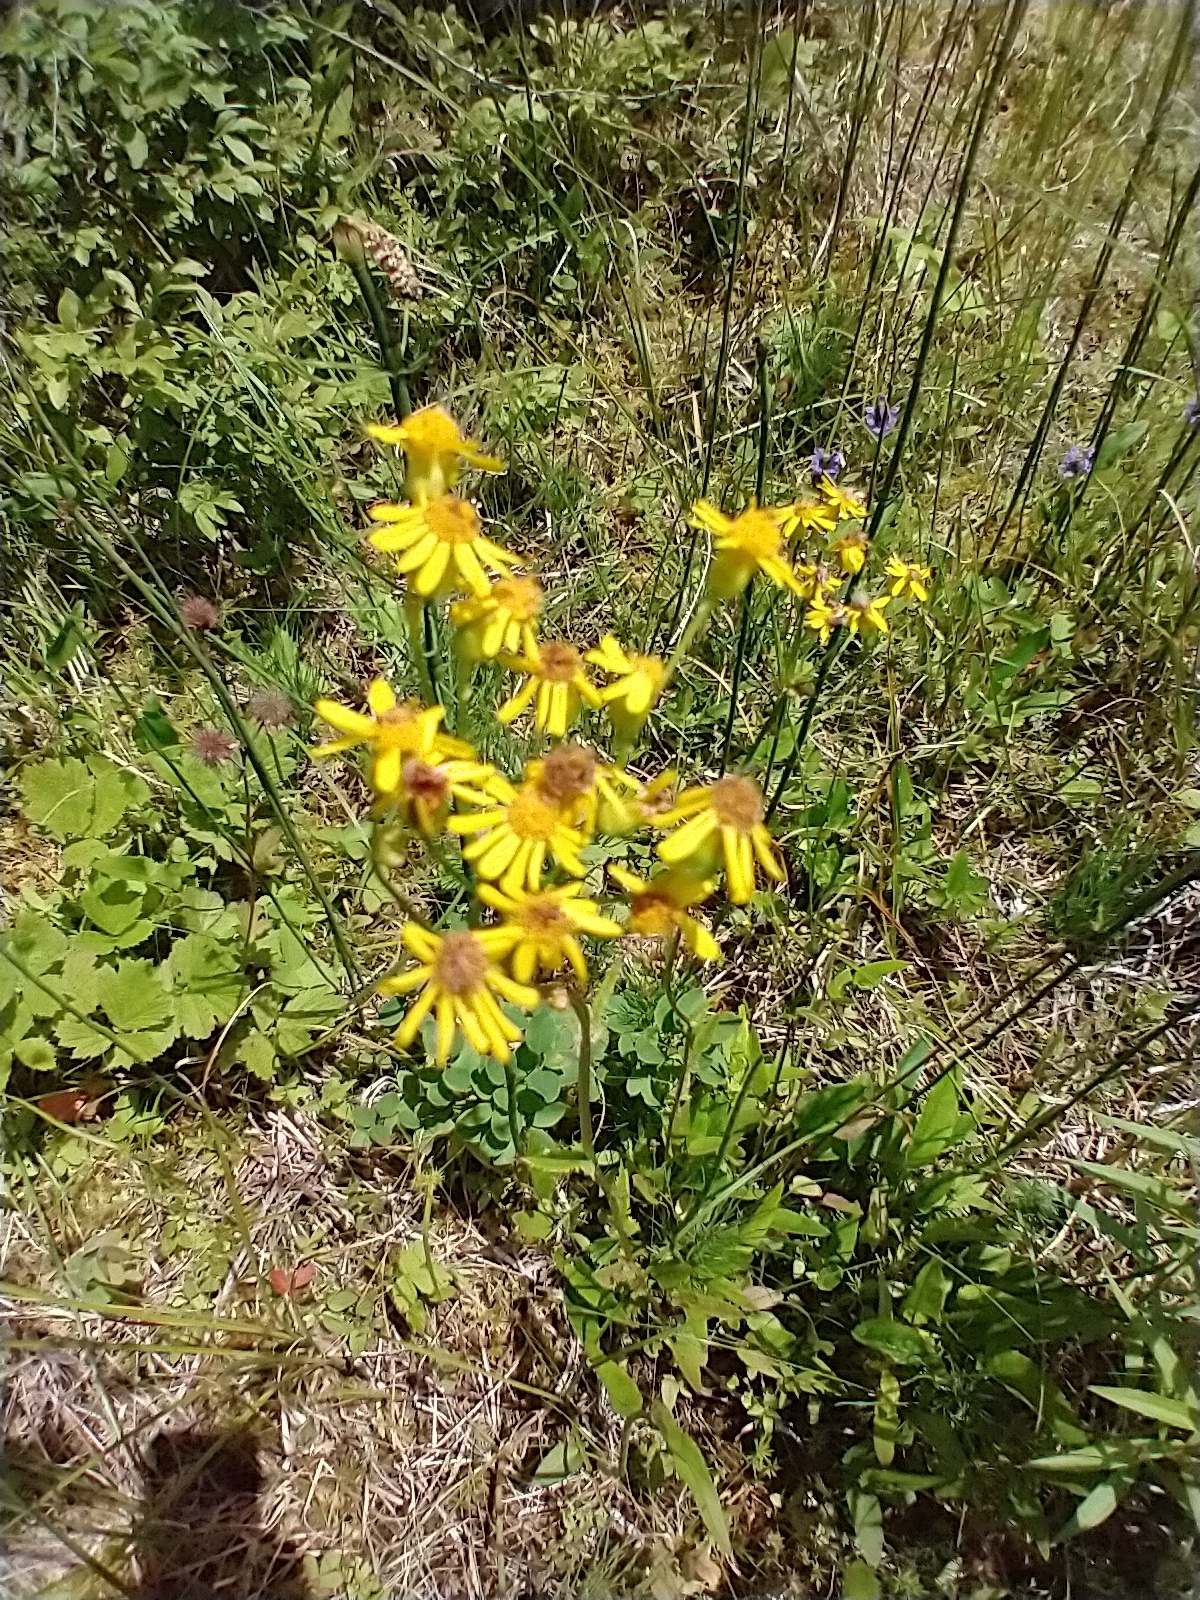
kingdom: Plantae
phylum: Tracheophyta
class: Magnoliopsida
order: Asterales
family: Asteraceae
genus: Packera
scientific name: Packera schweinitziana
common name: Schweinitz's ragwort
